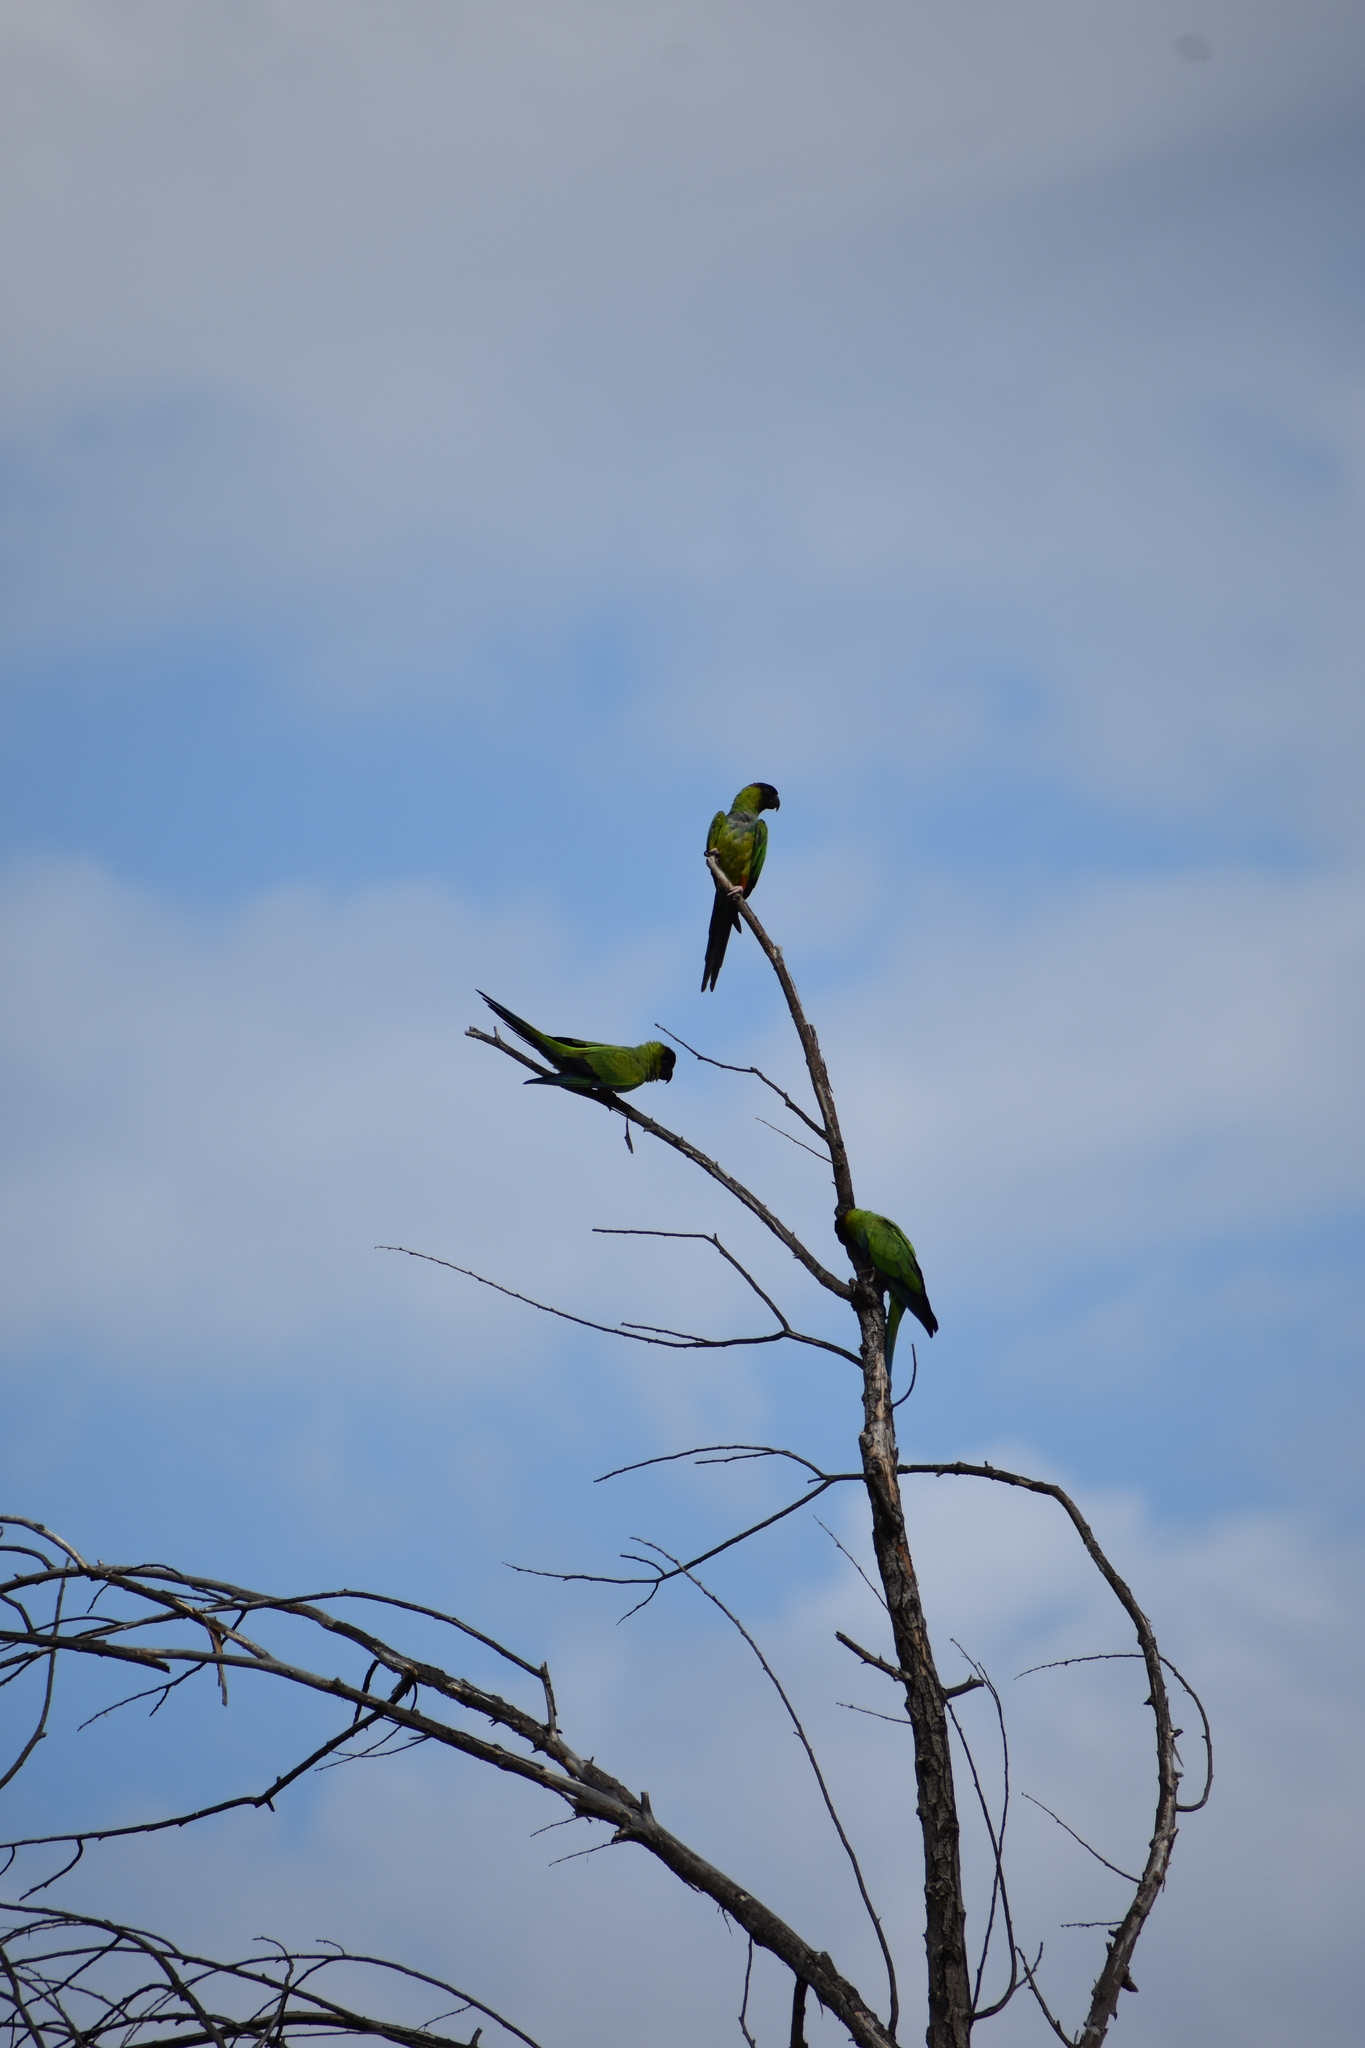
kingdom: Animalia
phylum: Chordata
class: Aves
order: Psittaciformes
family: Psittacidae
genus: Nandayus
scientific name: Nandayus nenday
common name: Nanday parakeet
